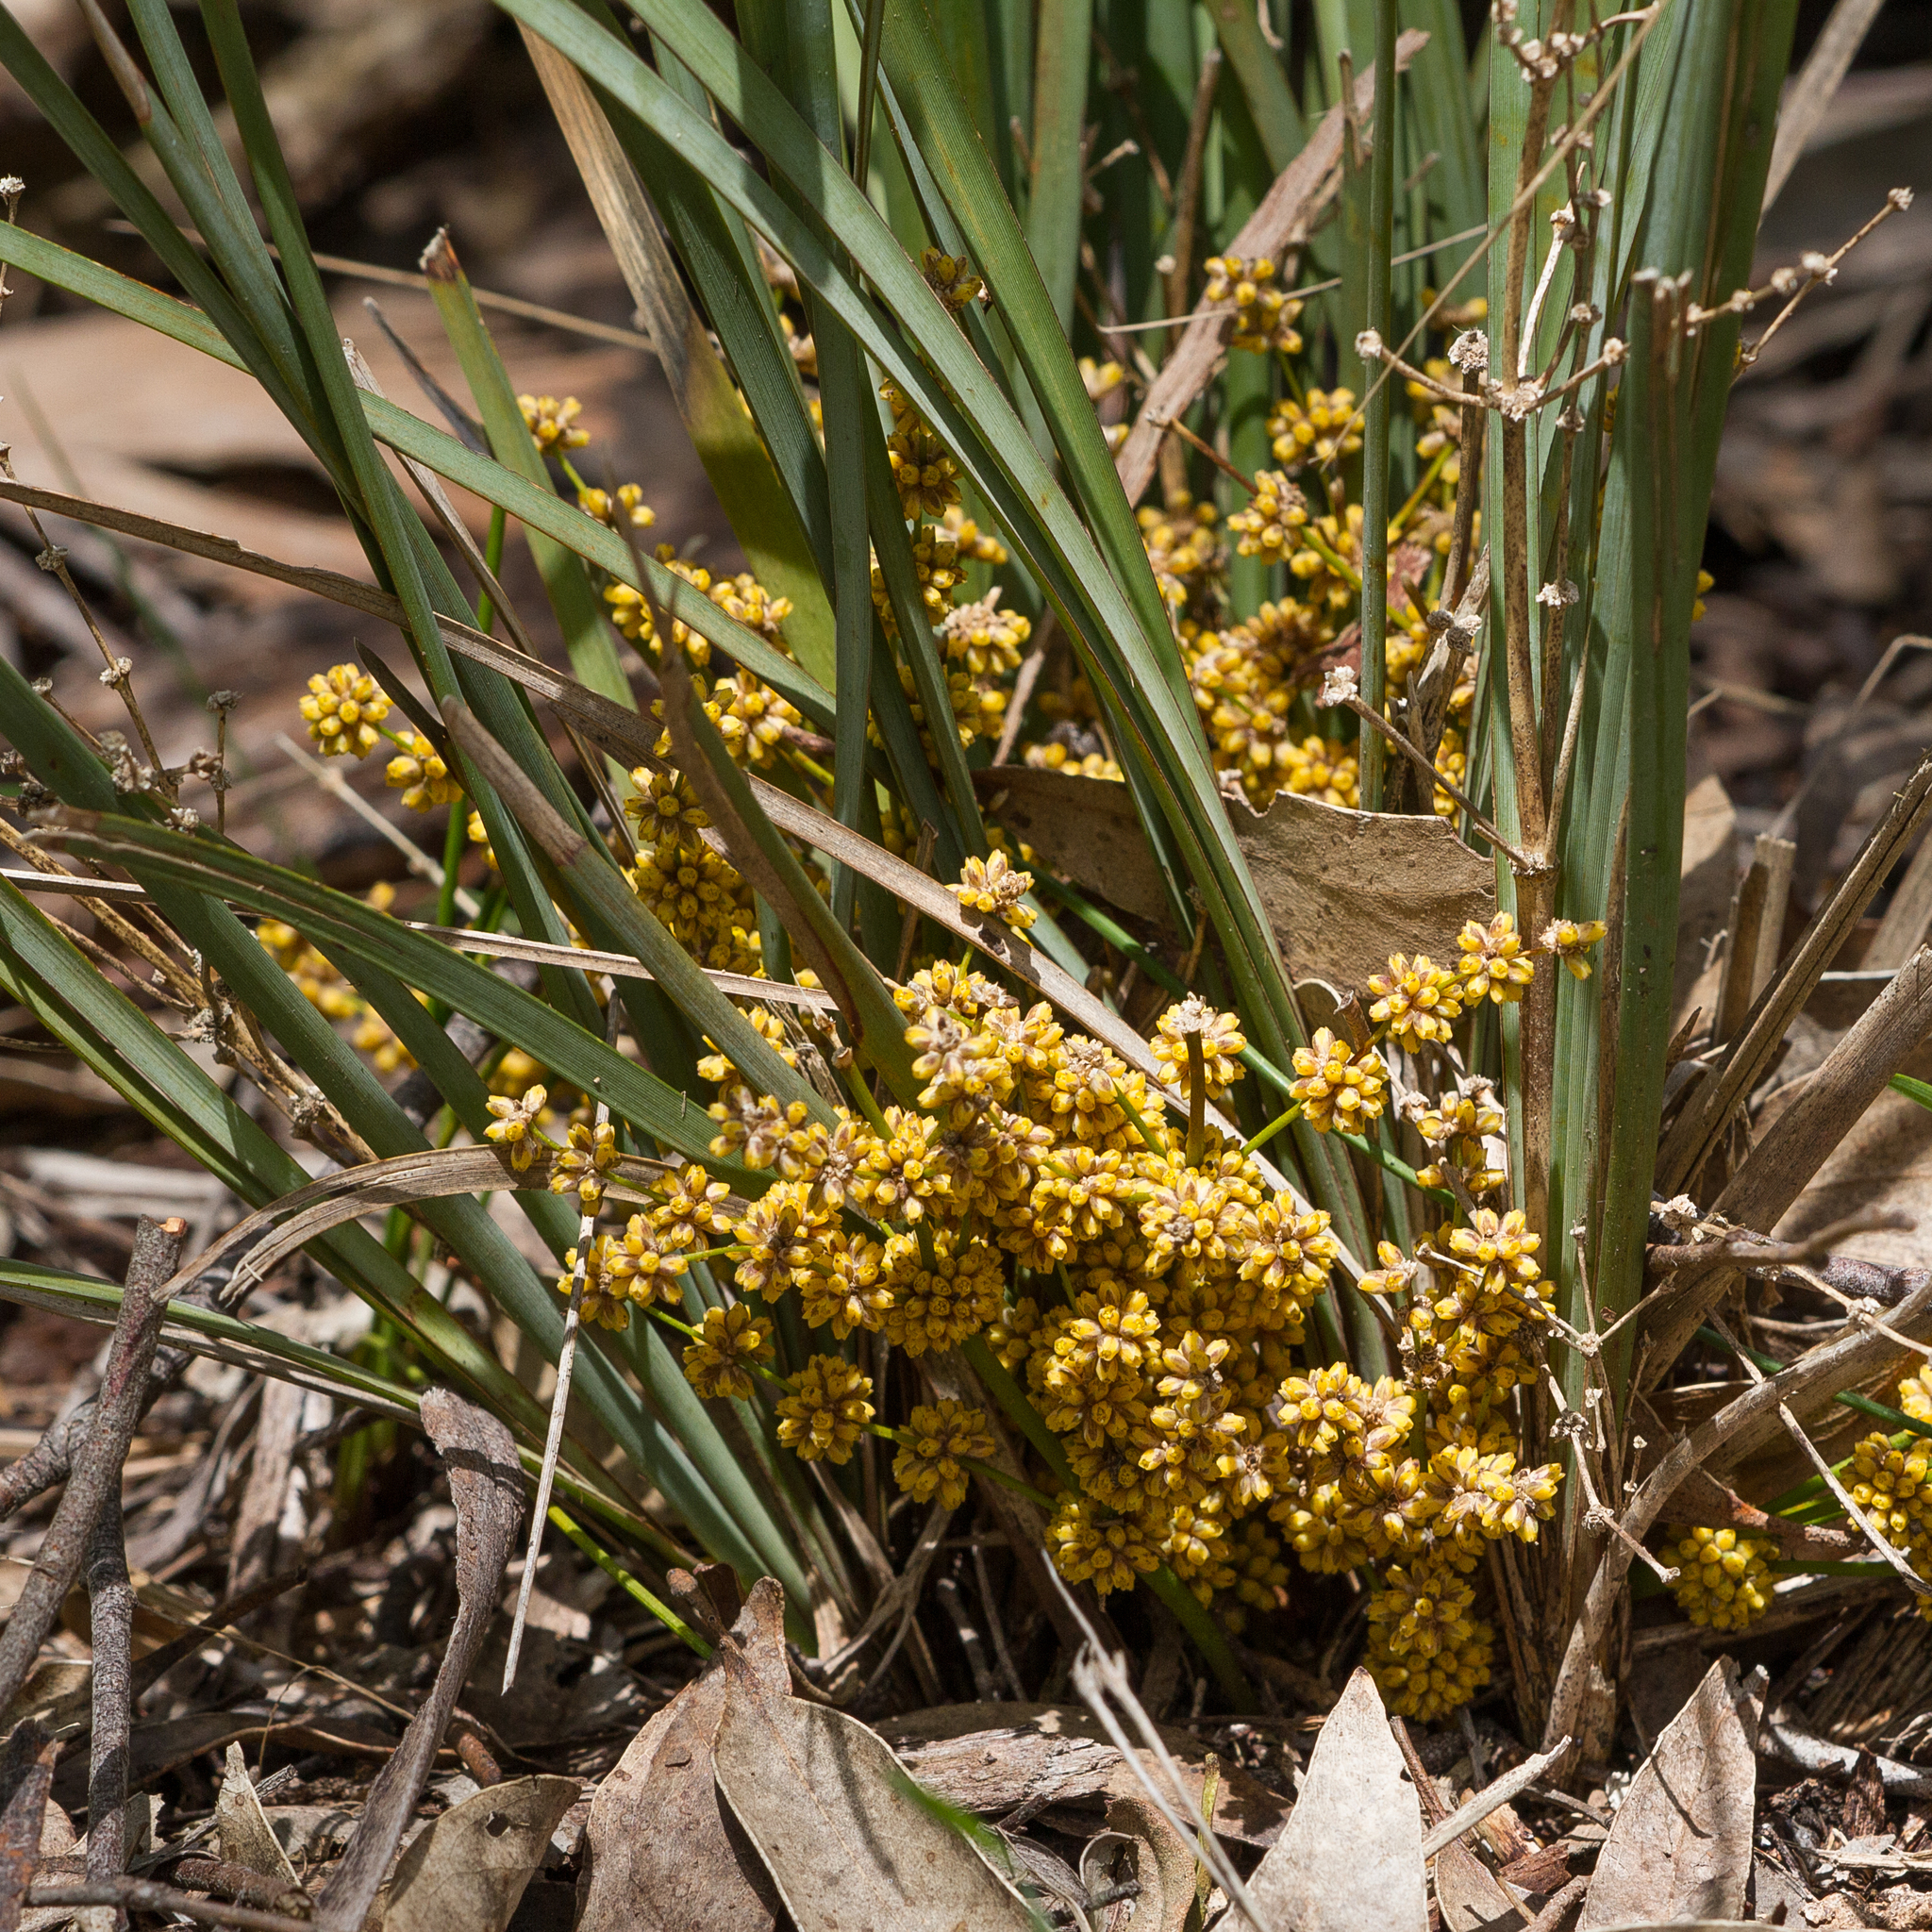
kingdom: Plantae
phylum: Tracheophyta
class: Liliopsida
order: Asparagales
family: Asparagaceae
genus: Lomandra
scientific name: Lomandra multiflora
